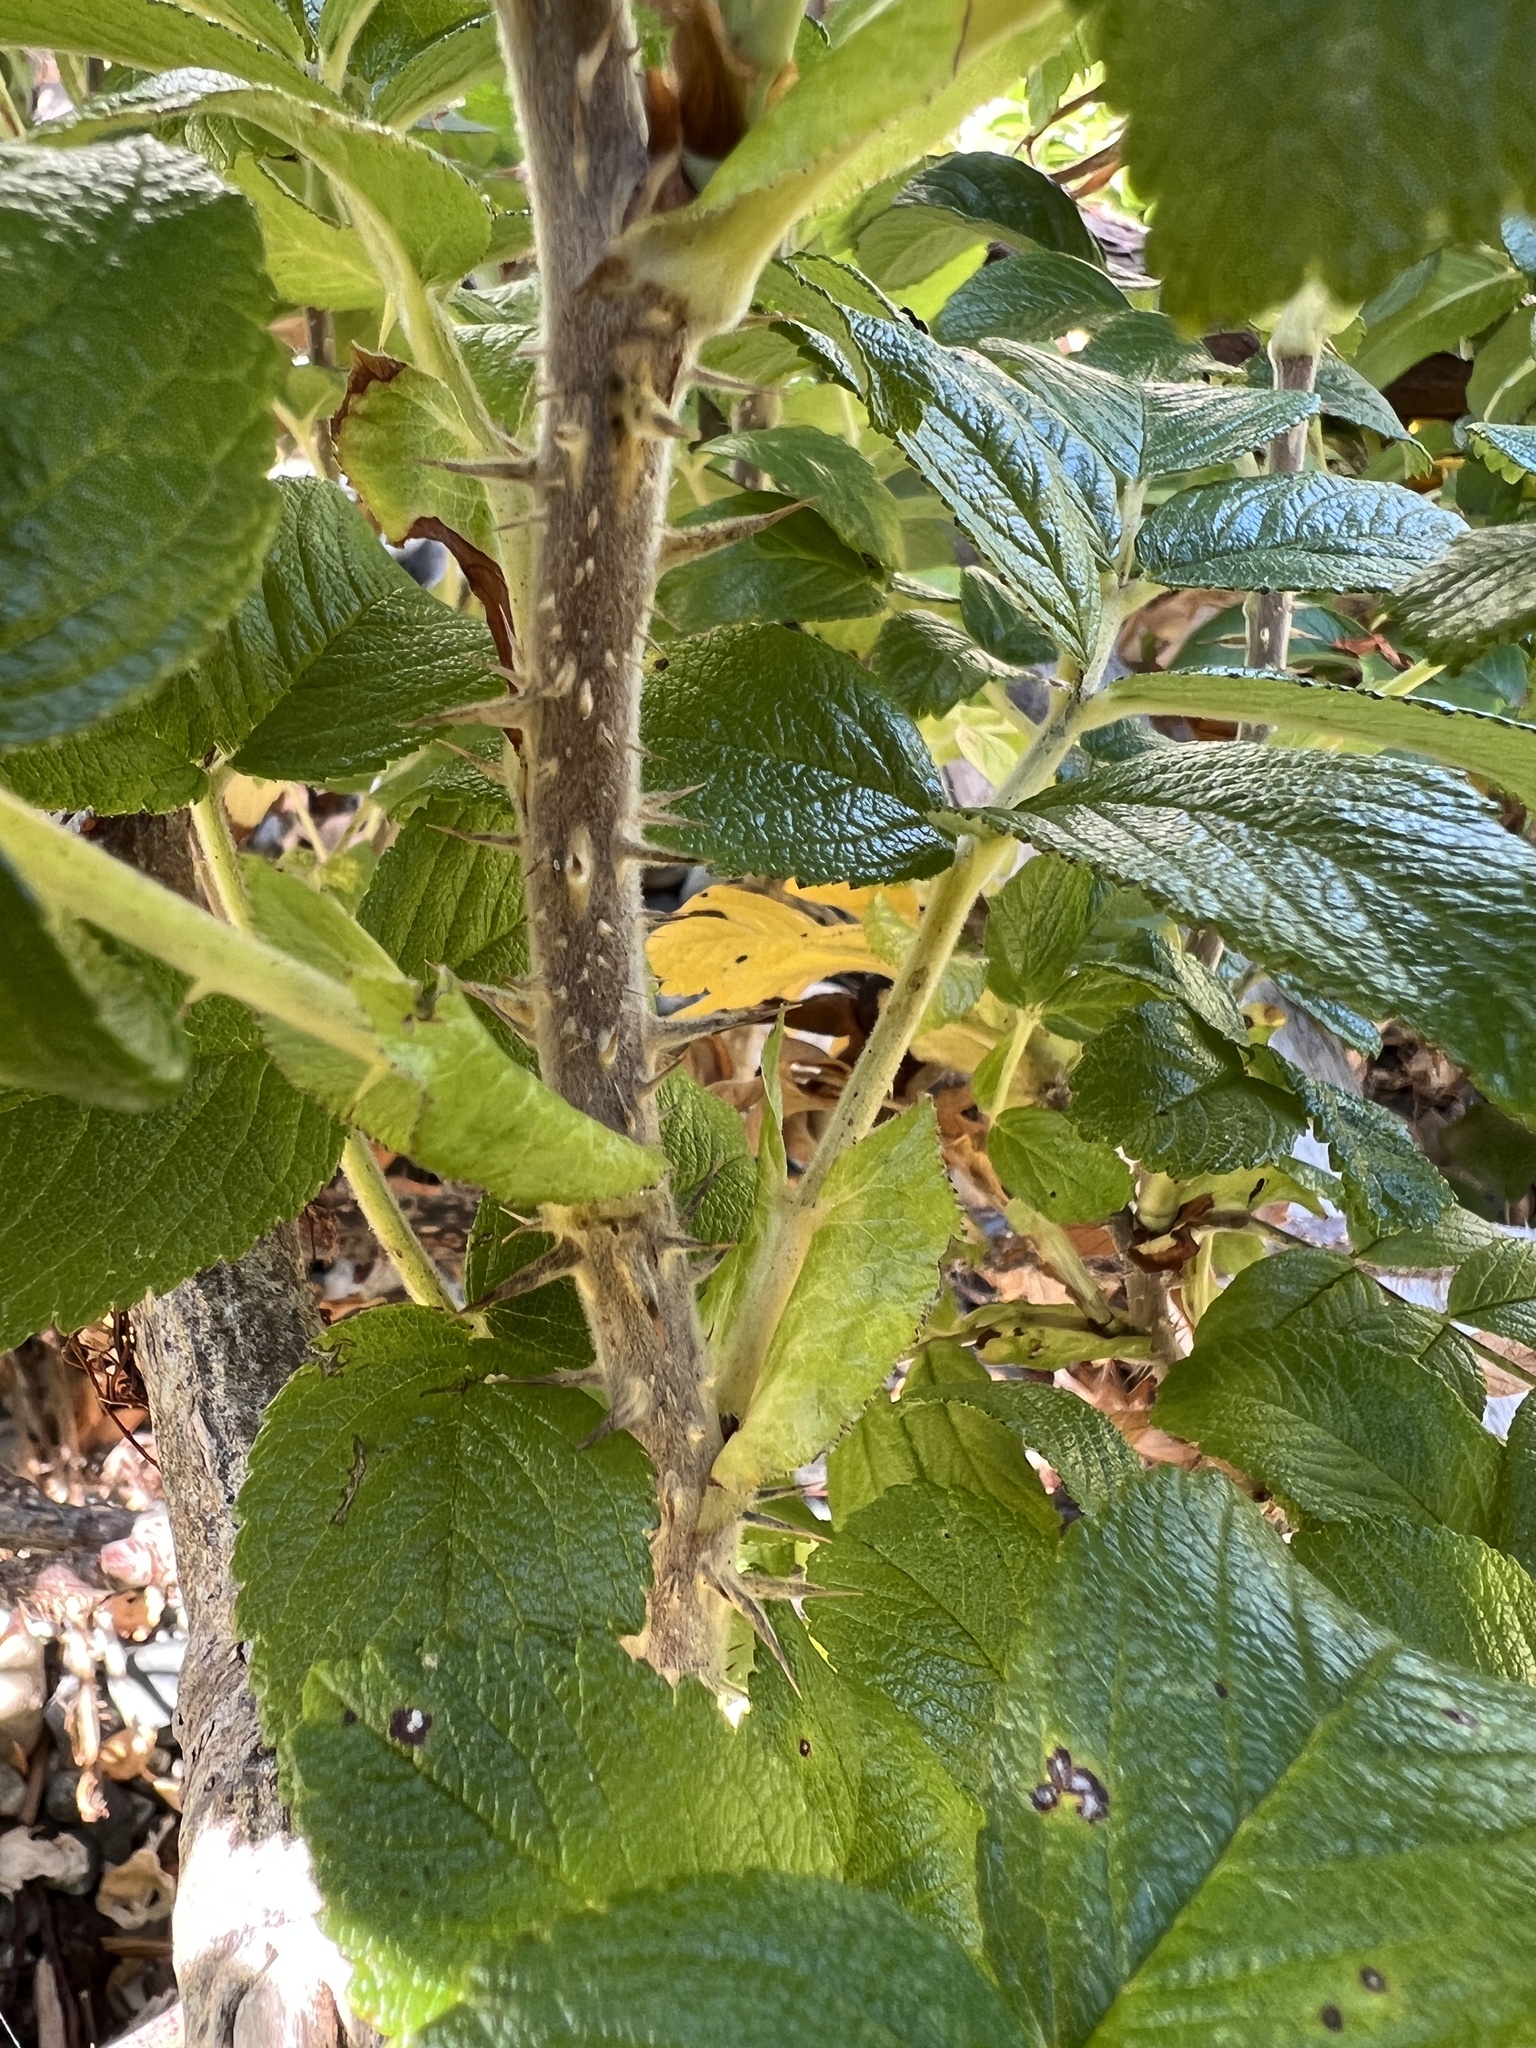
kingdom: Plantae
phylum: Tracheophyta
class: Magnoliopsida
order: Rosales
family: Rosaceae
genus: Rosa
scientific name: Rosa rugosa
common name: Japanese rose
